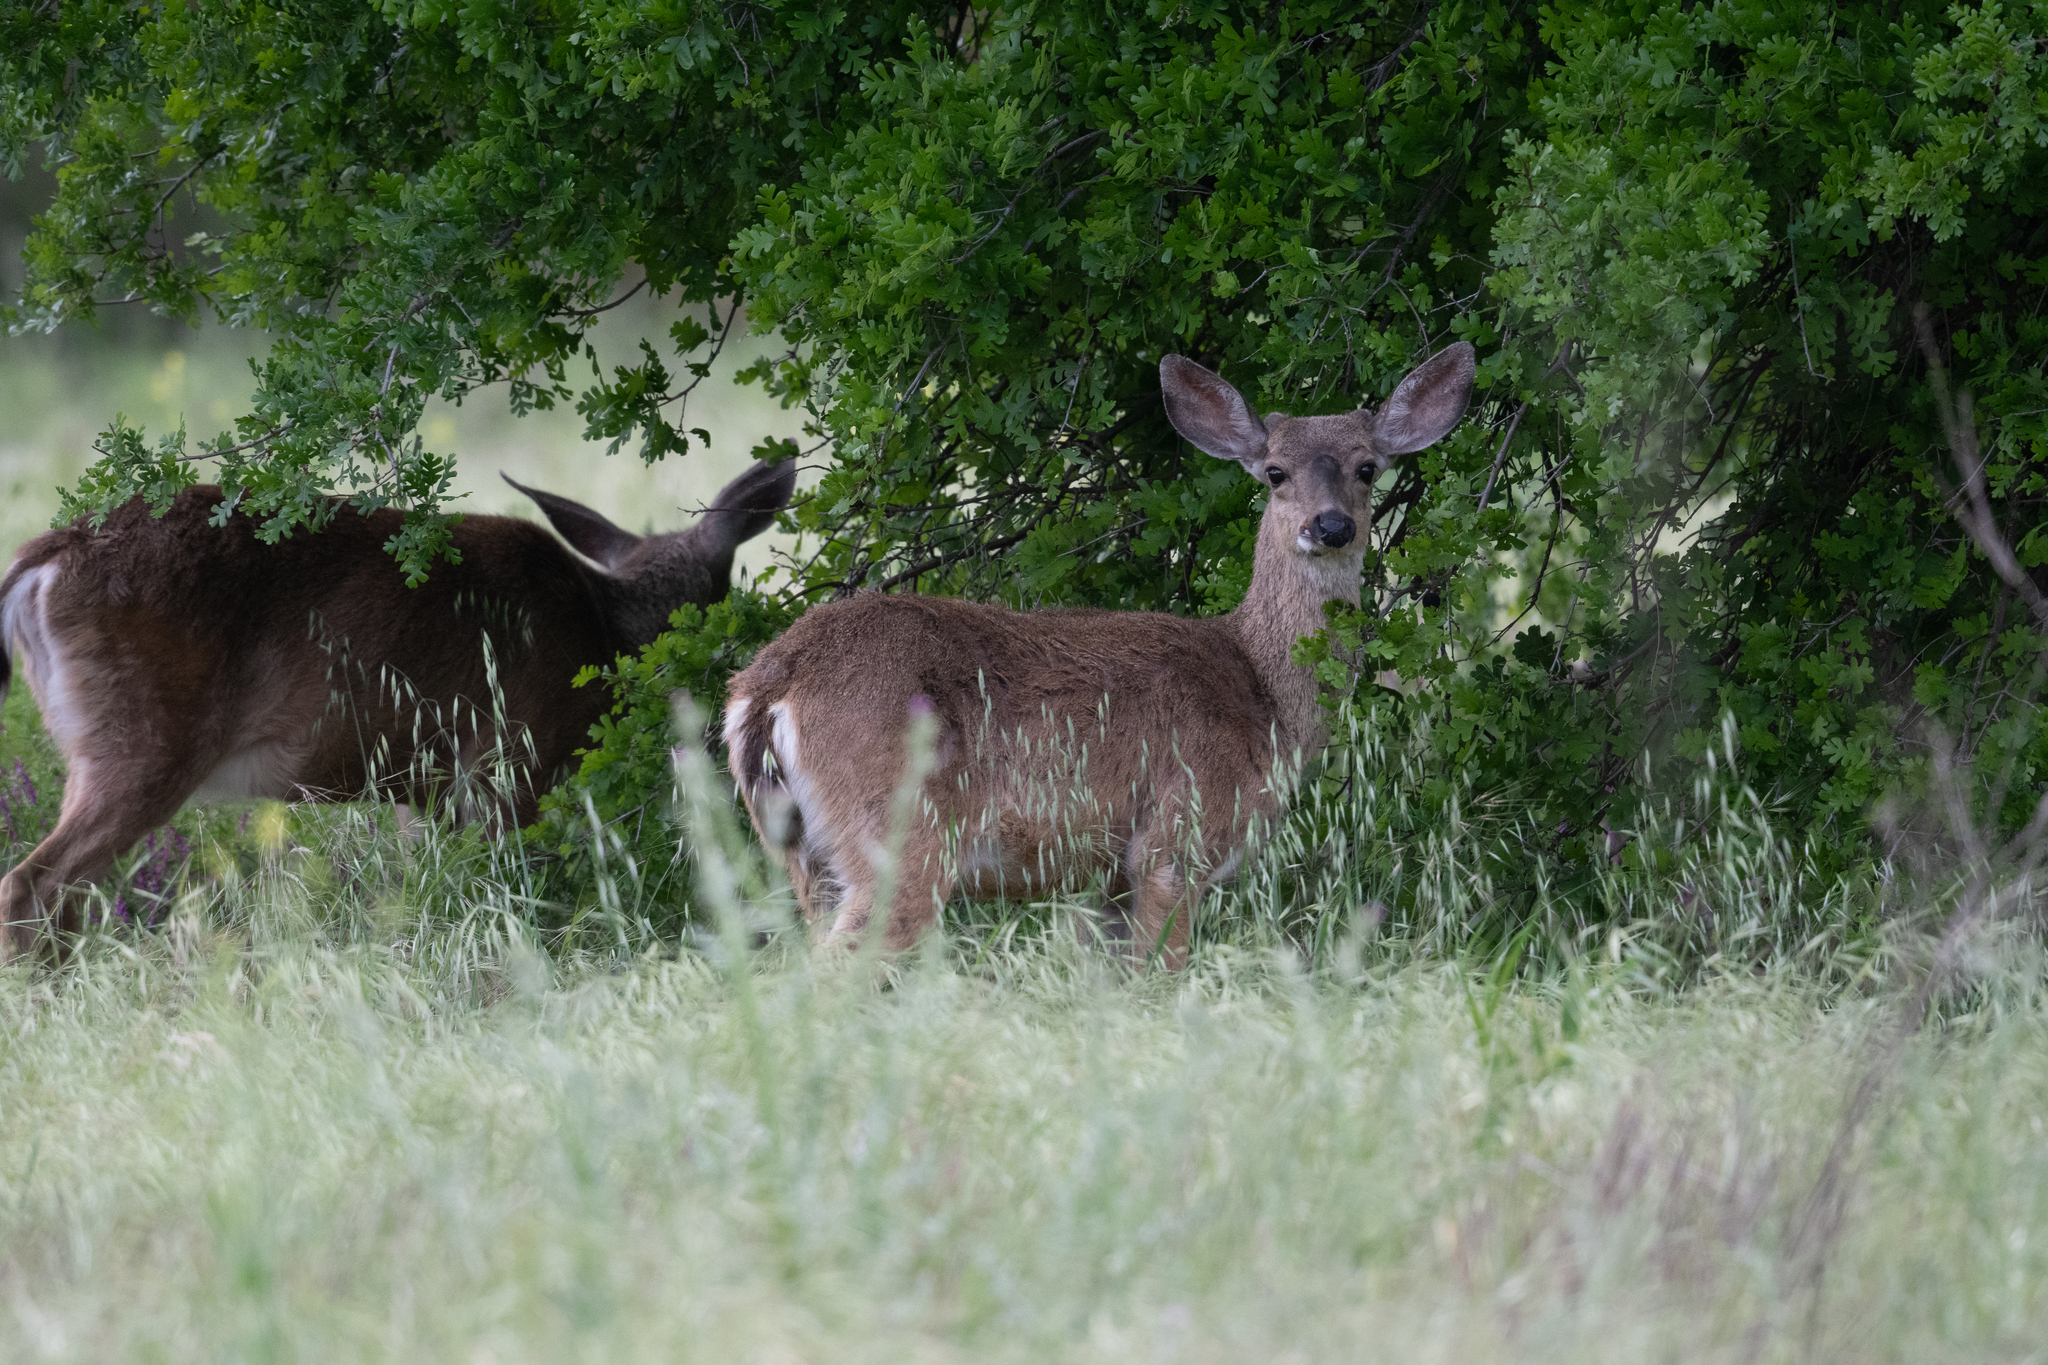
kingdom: Animalia
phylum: Chordata
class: Mammalia
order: Artiodactyla
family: Cervidae
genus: Odocoileus
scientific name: Odocoileus hemionus
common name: Mule deer
